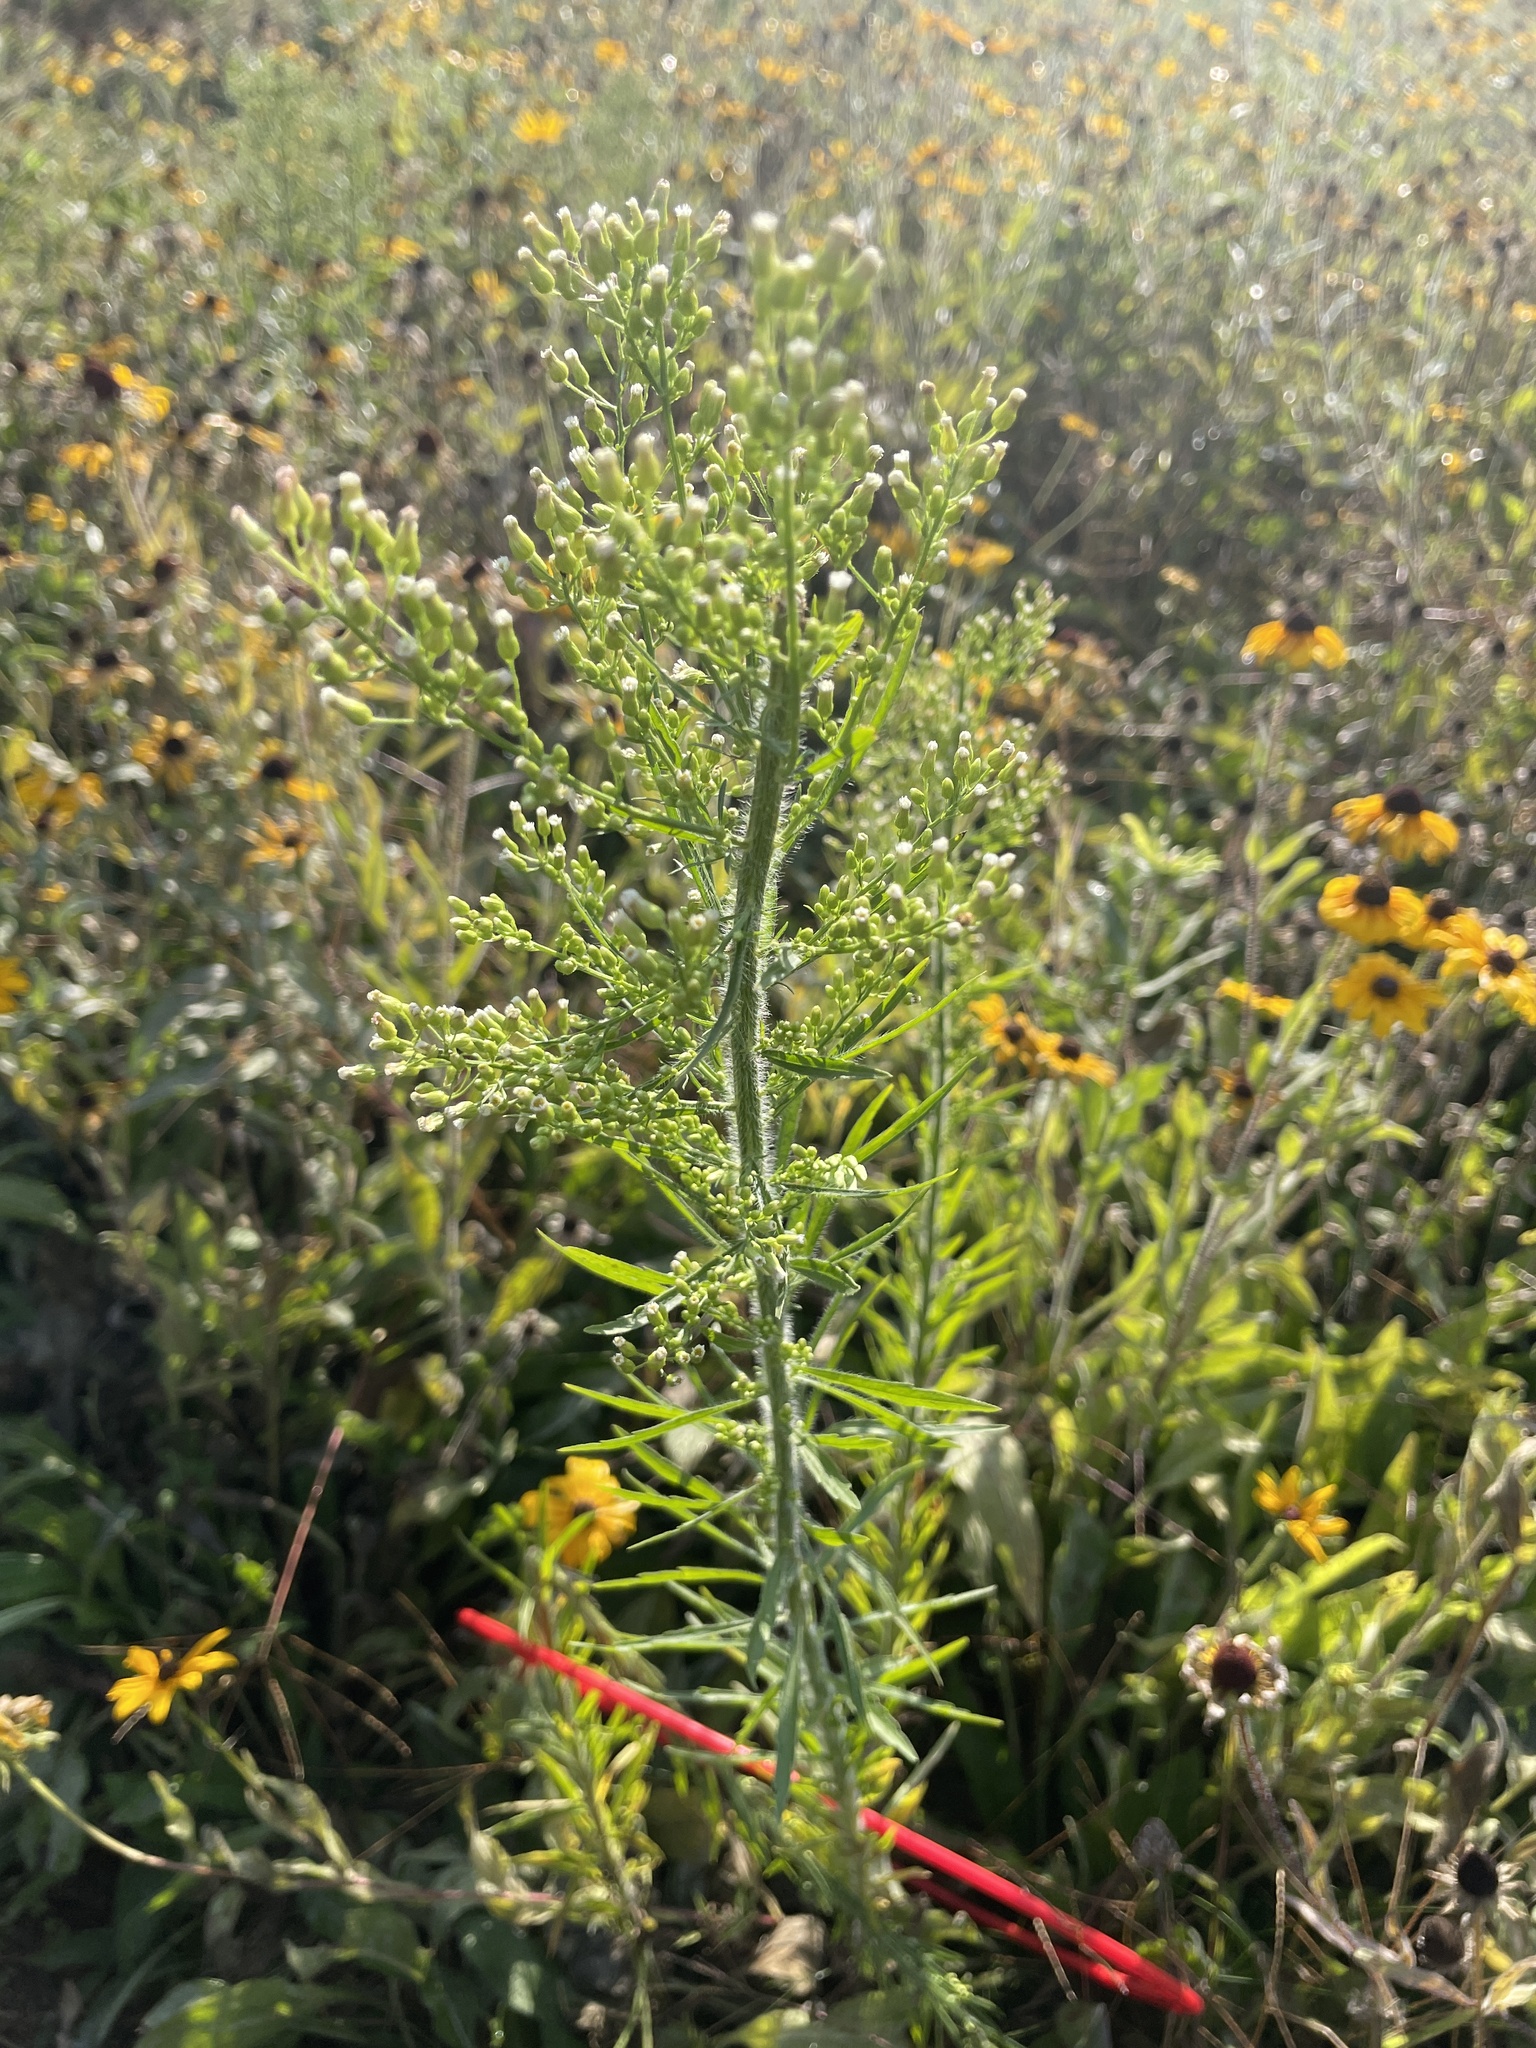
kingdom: Plantae
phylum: Tracheophyta
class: Magnoliopsida
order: Asterales
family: Asteraceae
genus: Erigeron
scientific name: Erigeron canadensis
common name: Canadian fleabane
